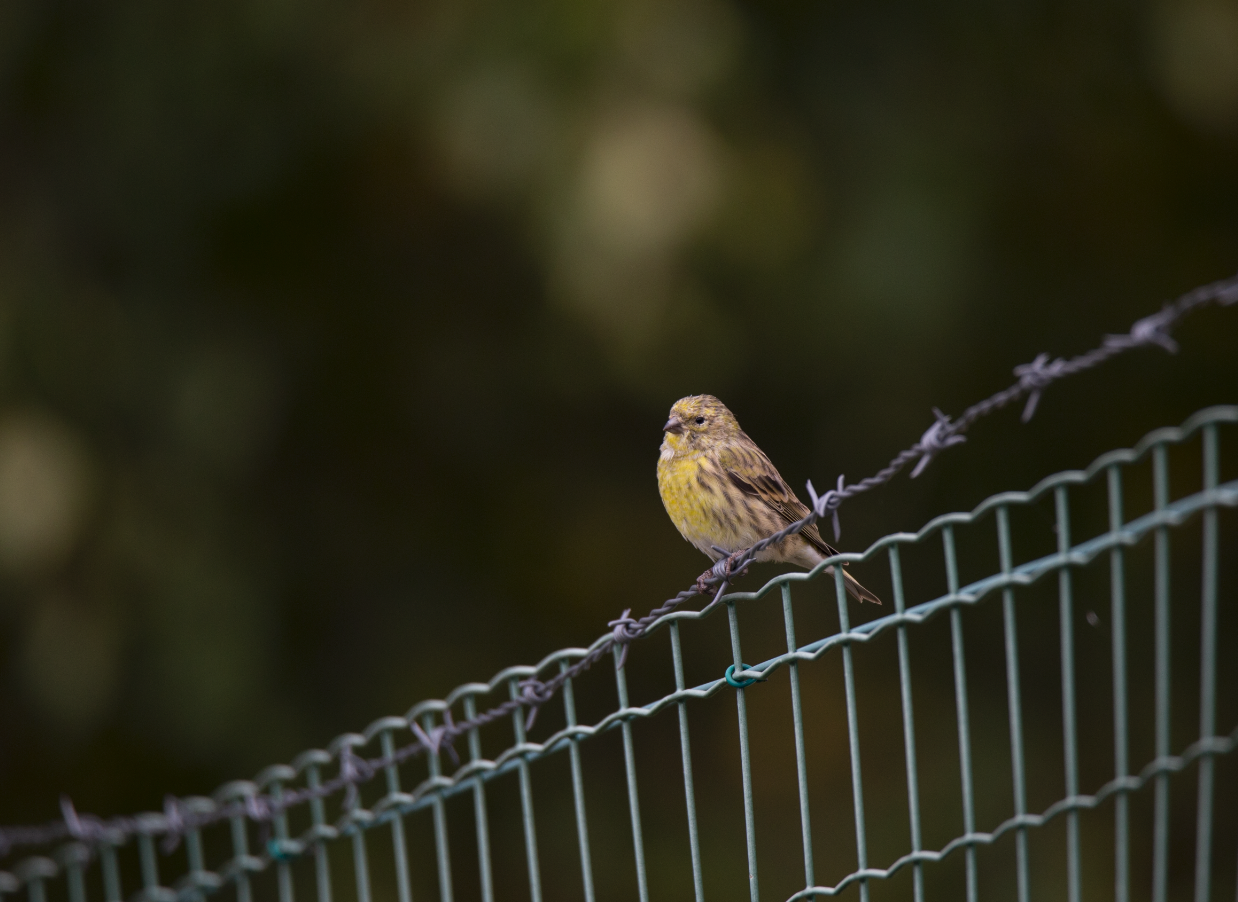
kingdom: Animalia
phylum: Chordata
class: Aves
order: Passeriformes
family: Fringillidae
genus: Serinus
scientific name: Serinus serinus
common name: European serin
